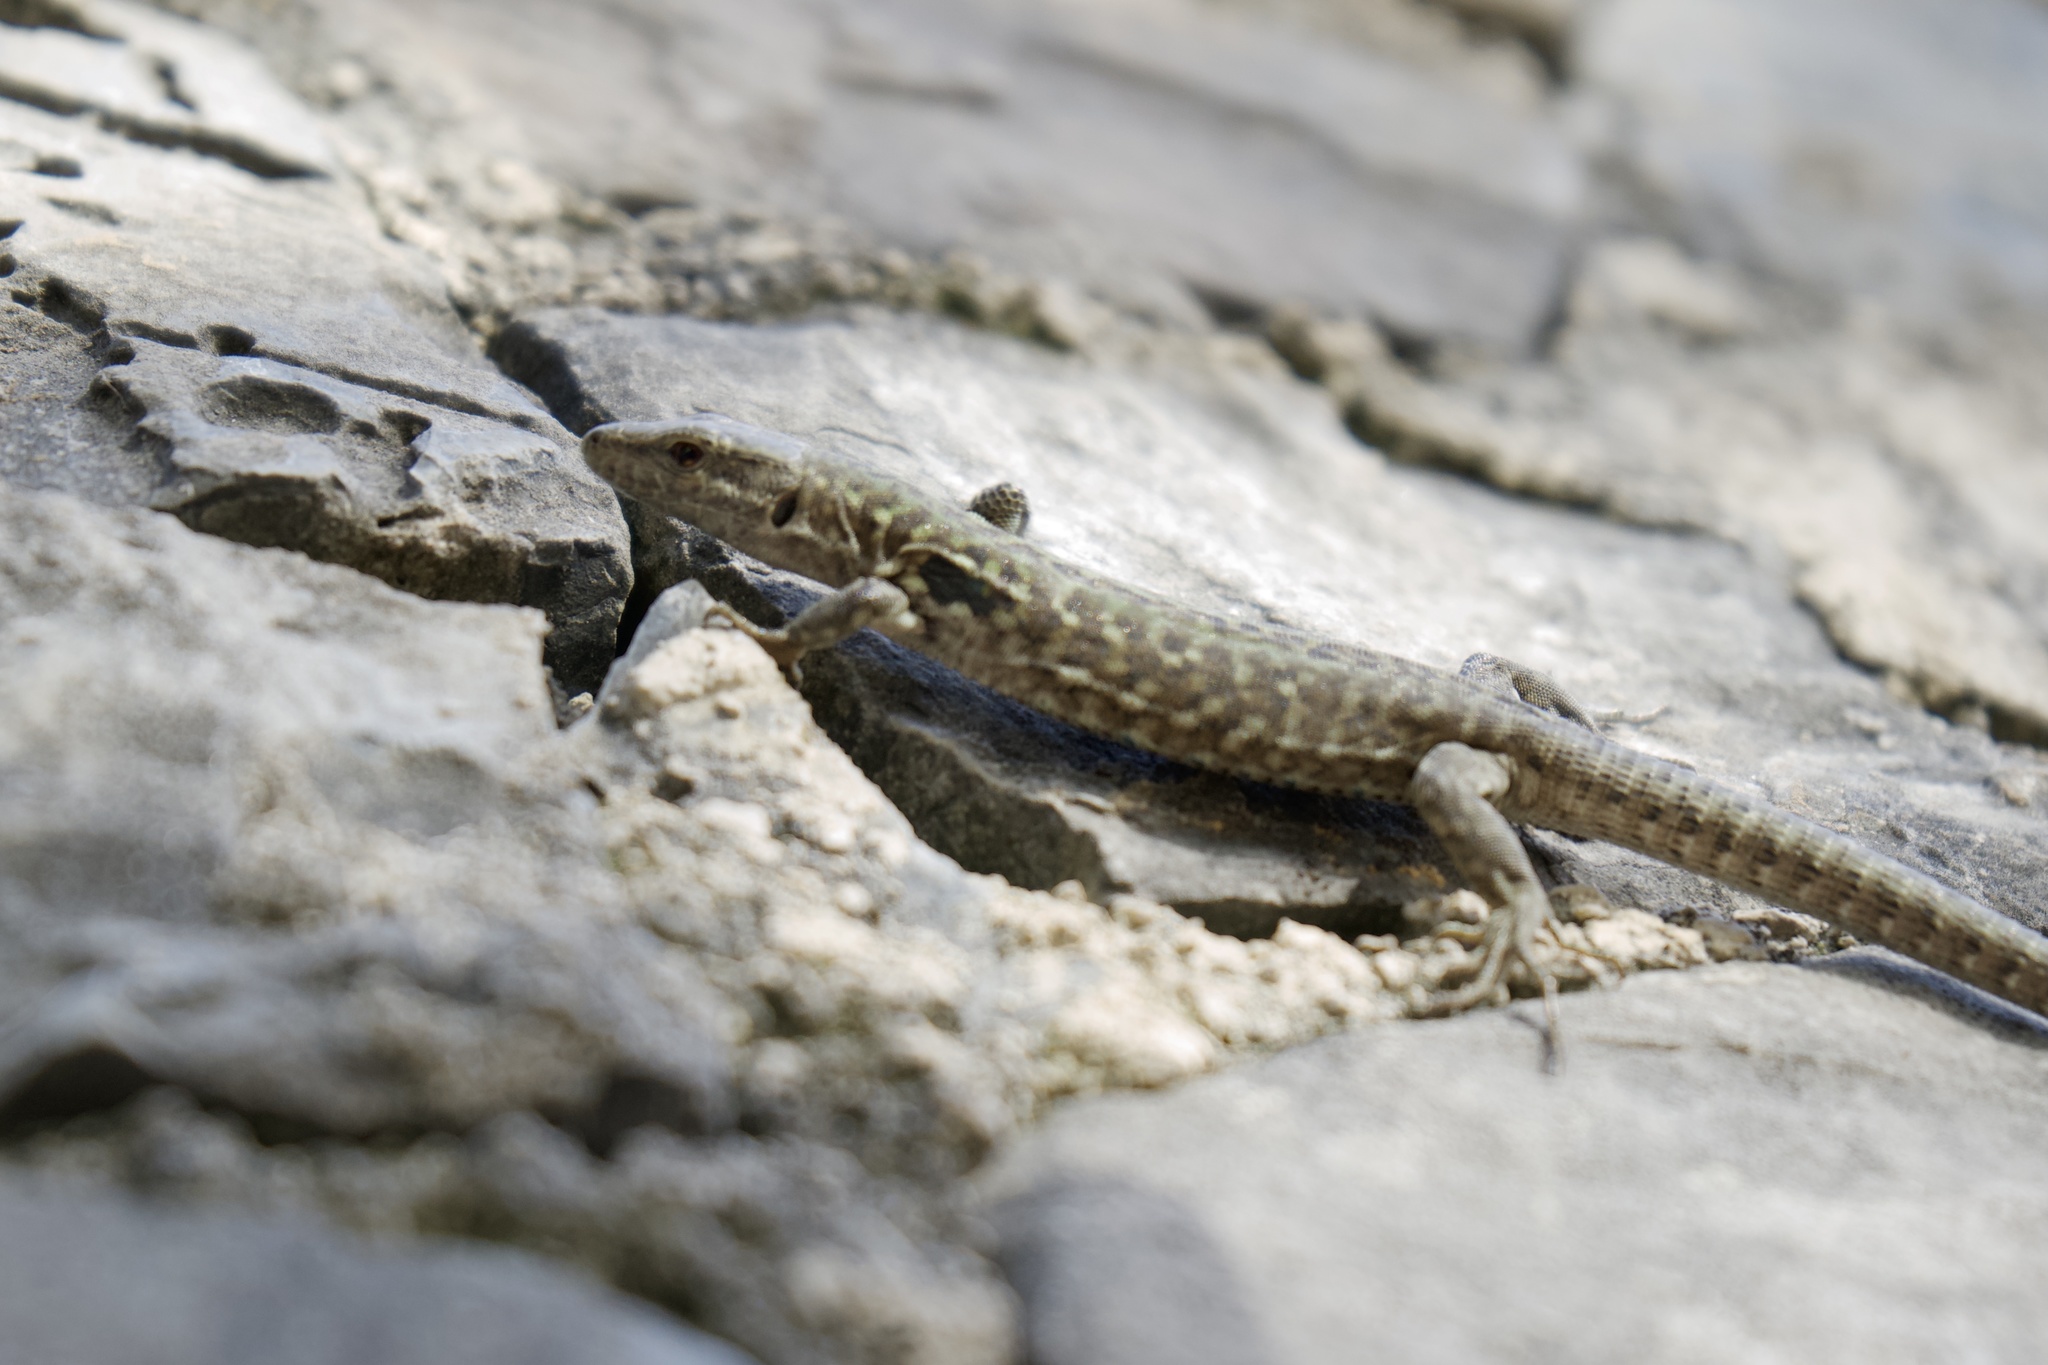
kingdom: Animalia
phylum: Chordata
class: Squamata
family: Lacertidae
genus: Podarcis
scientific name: Podarcis siculus
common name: Italian wall lizard
